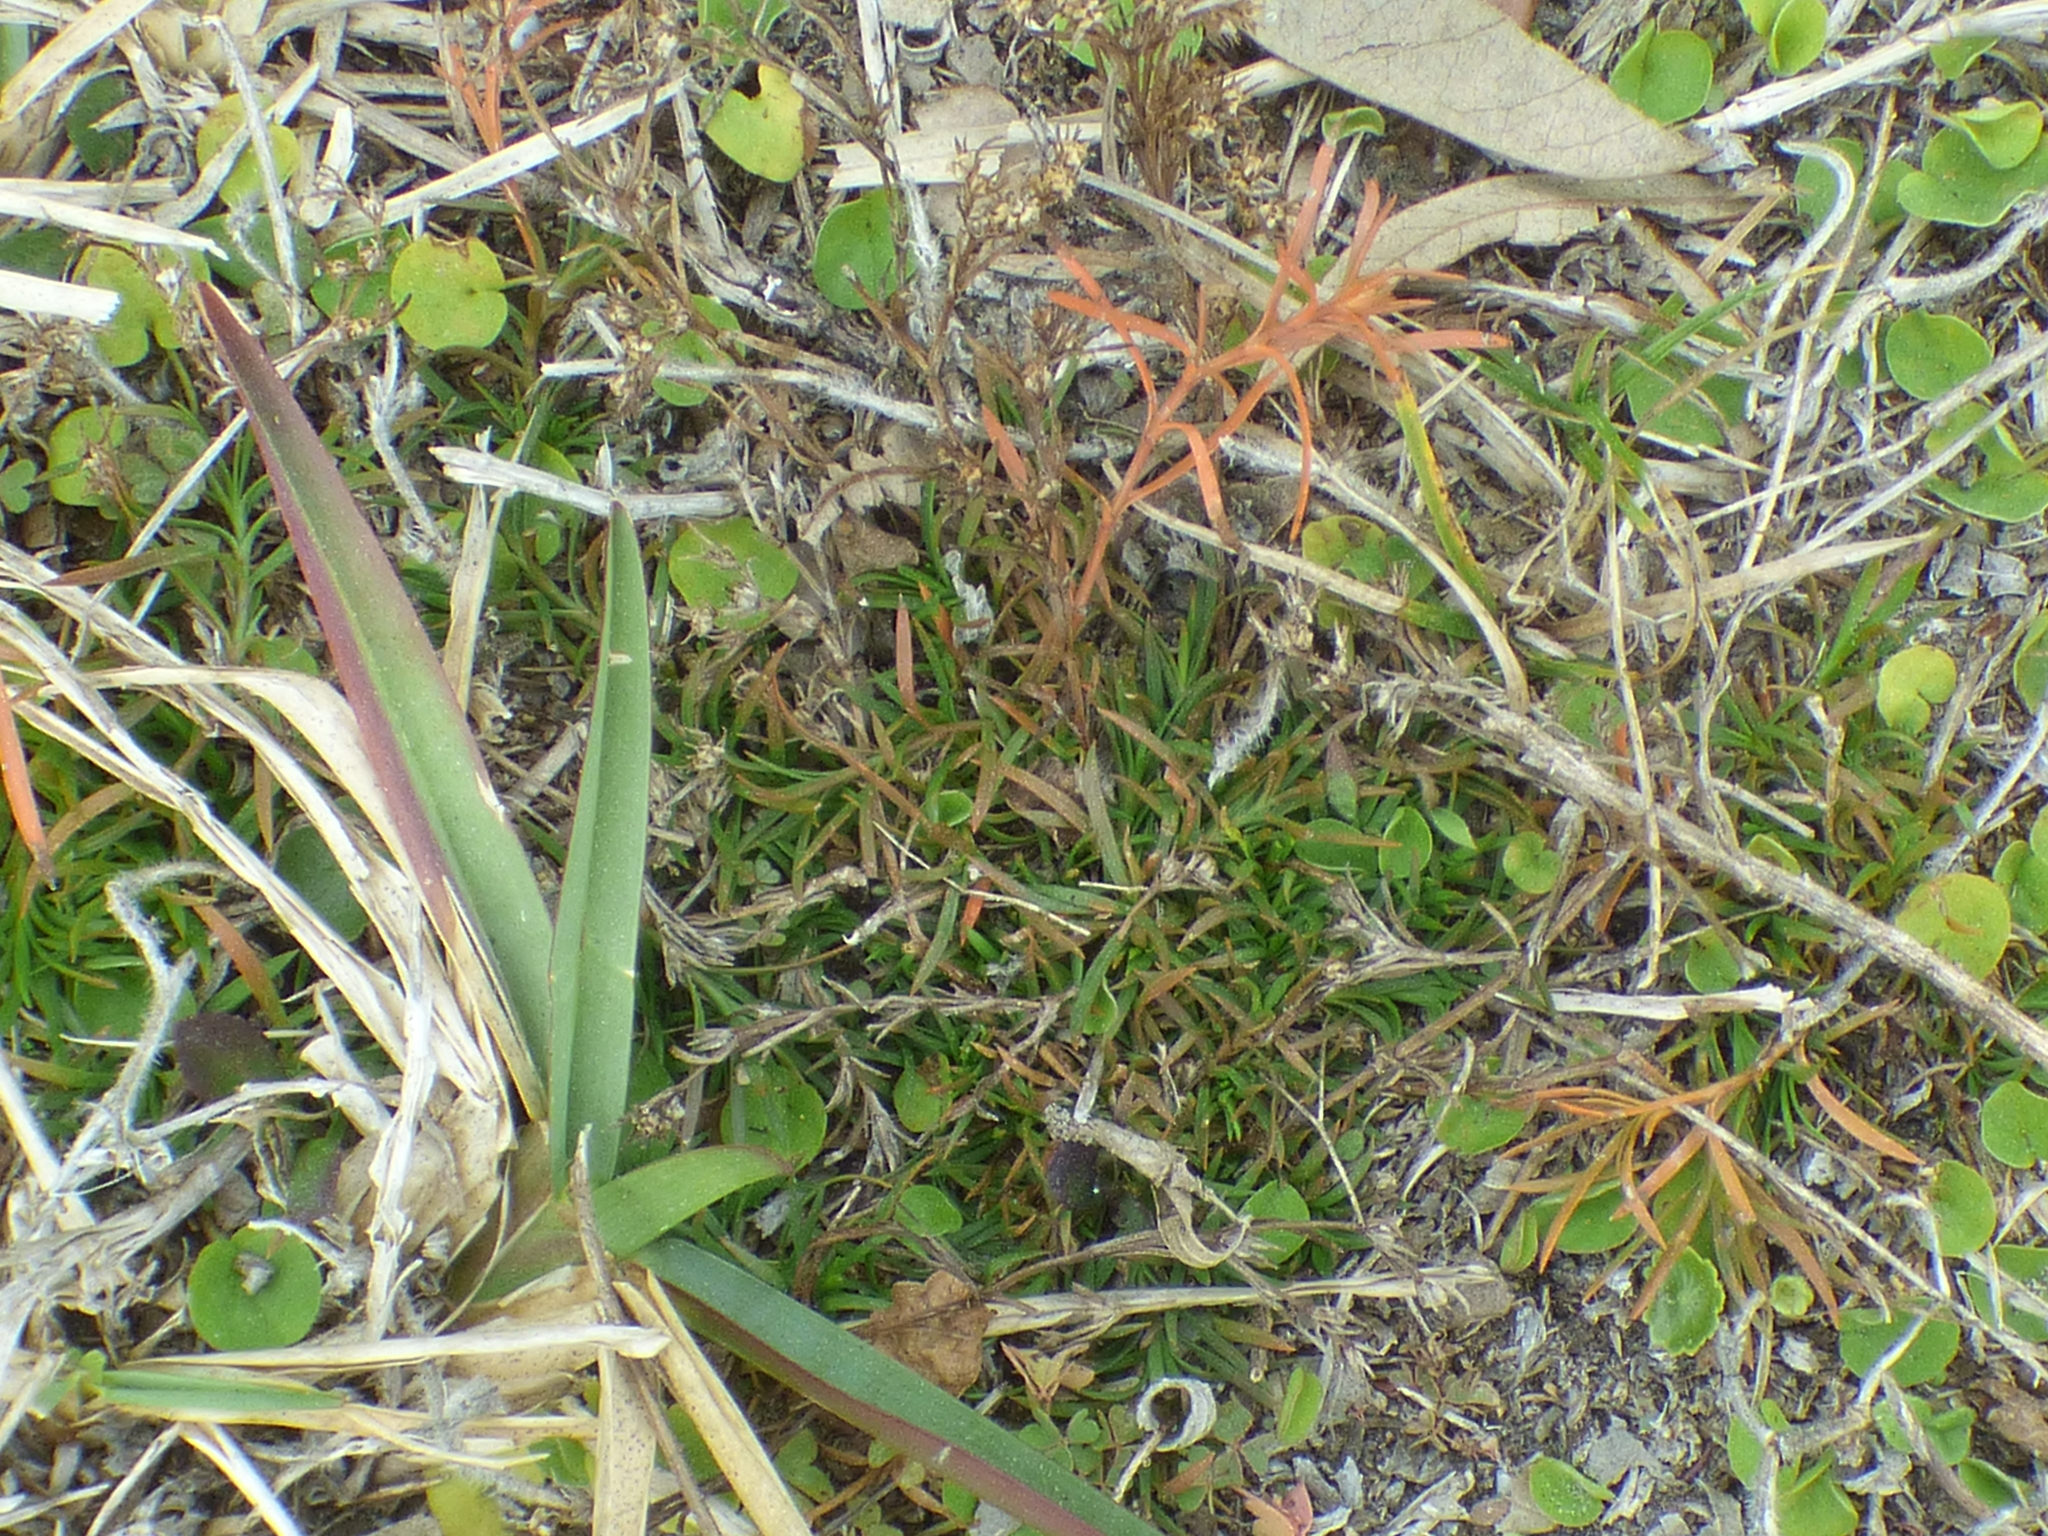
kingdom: Plantae
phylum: Tracheophyta
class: Magnoliopsida
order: Lamiales
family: Tetrachondraceae
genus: Polypremum
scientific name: Polypremum procumbens
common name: Juniper-leaf
